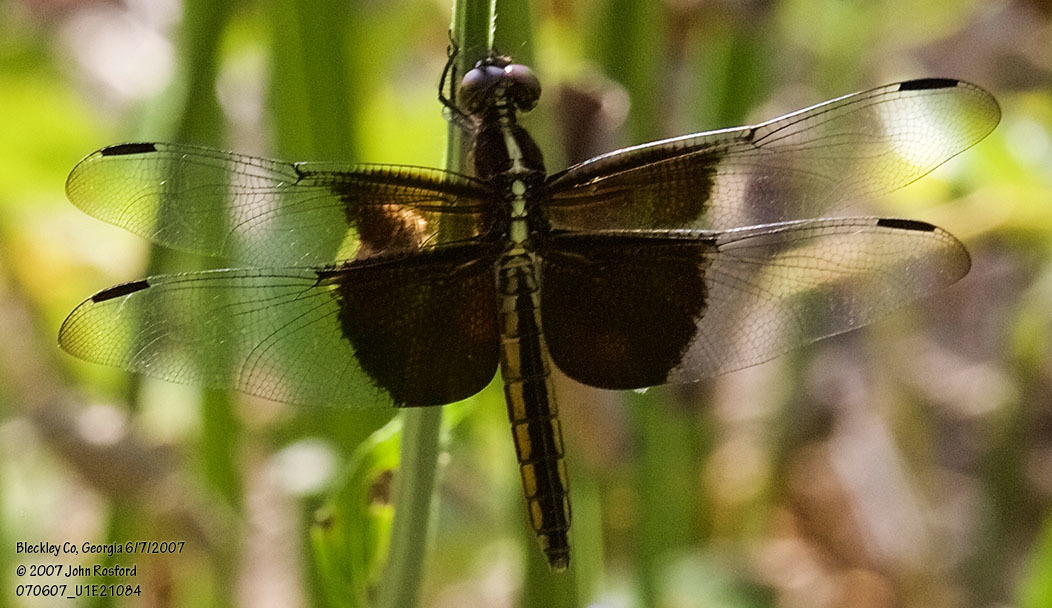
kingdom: Animalia
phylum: Arthropoda
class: Insecta
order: Odonata
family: Libellulidae
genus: Libellula
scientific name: Libellula luctuosa
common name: Widow skimmer
